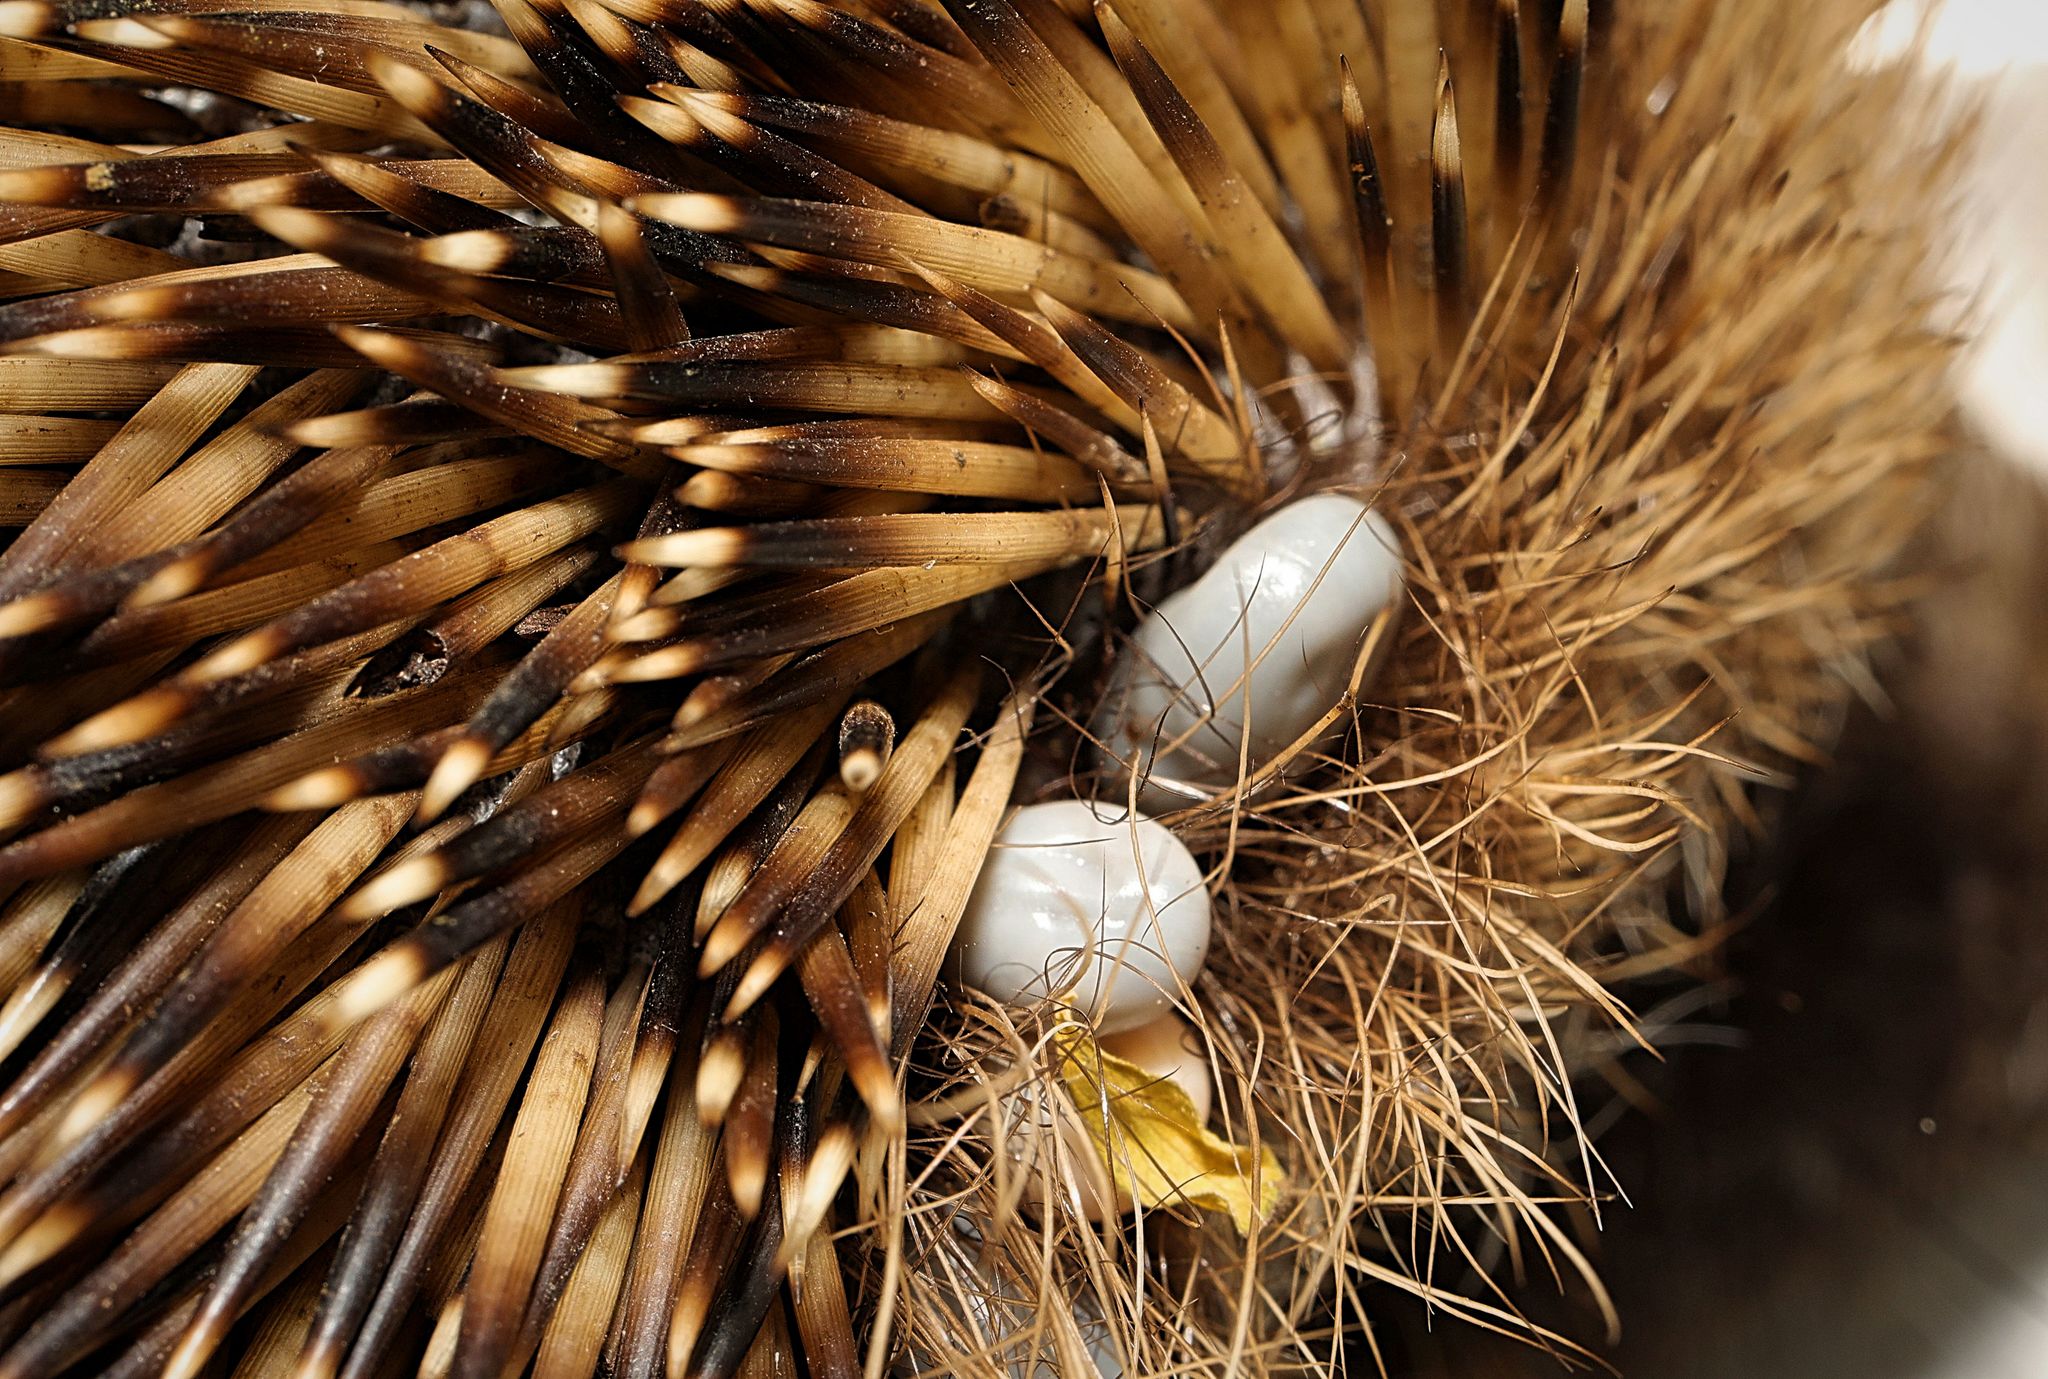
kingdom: Animalia
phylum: Arthropoda
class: Arachnida
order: Ixodida
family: Ixodidae
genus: Ixodes
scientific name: Ixodes hexagonus
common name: Hedgehog tick
